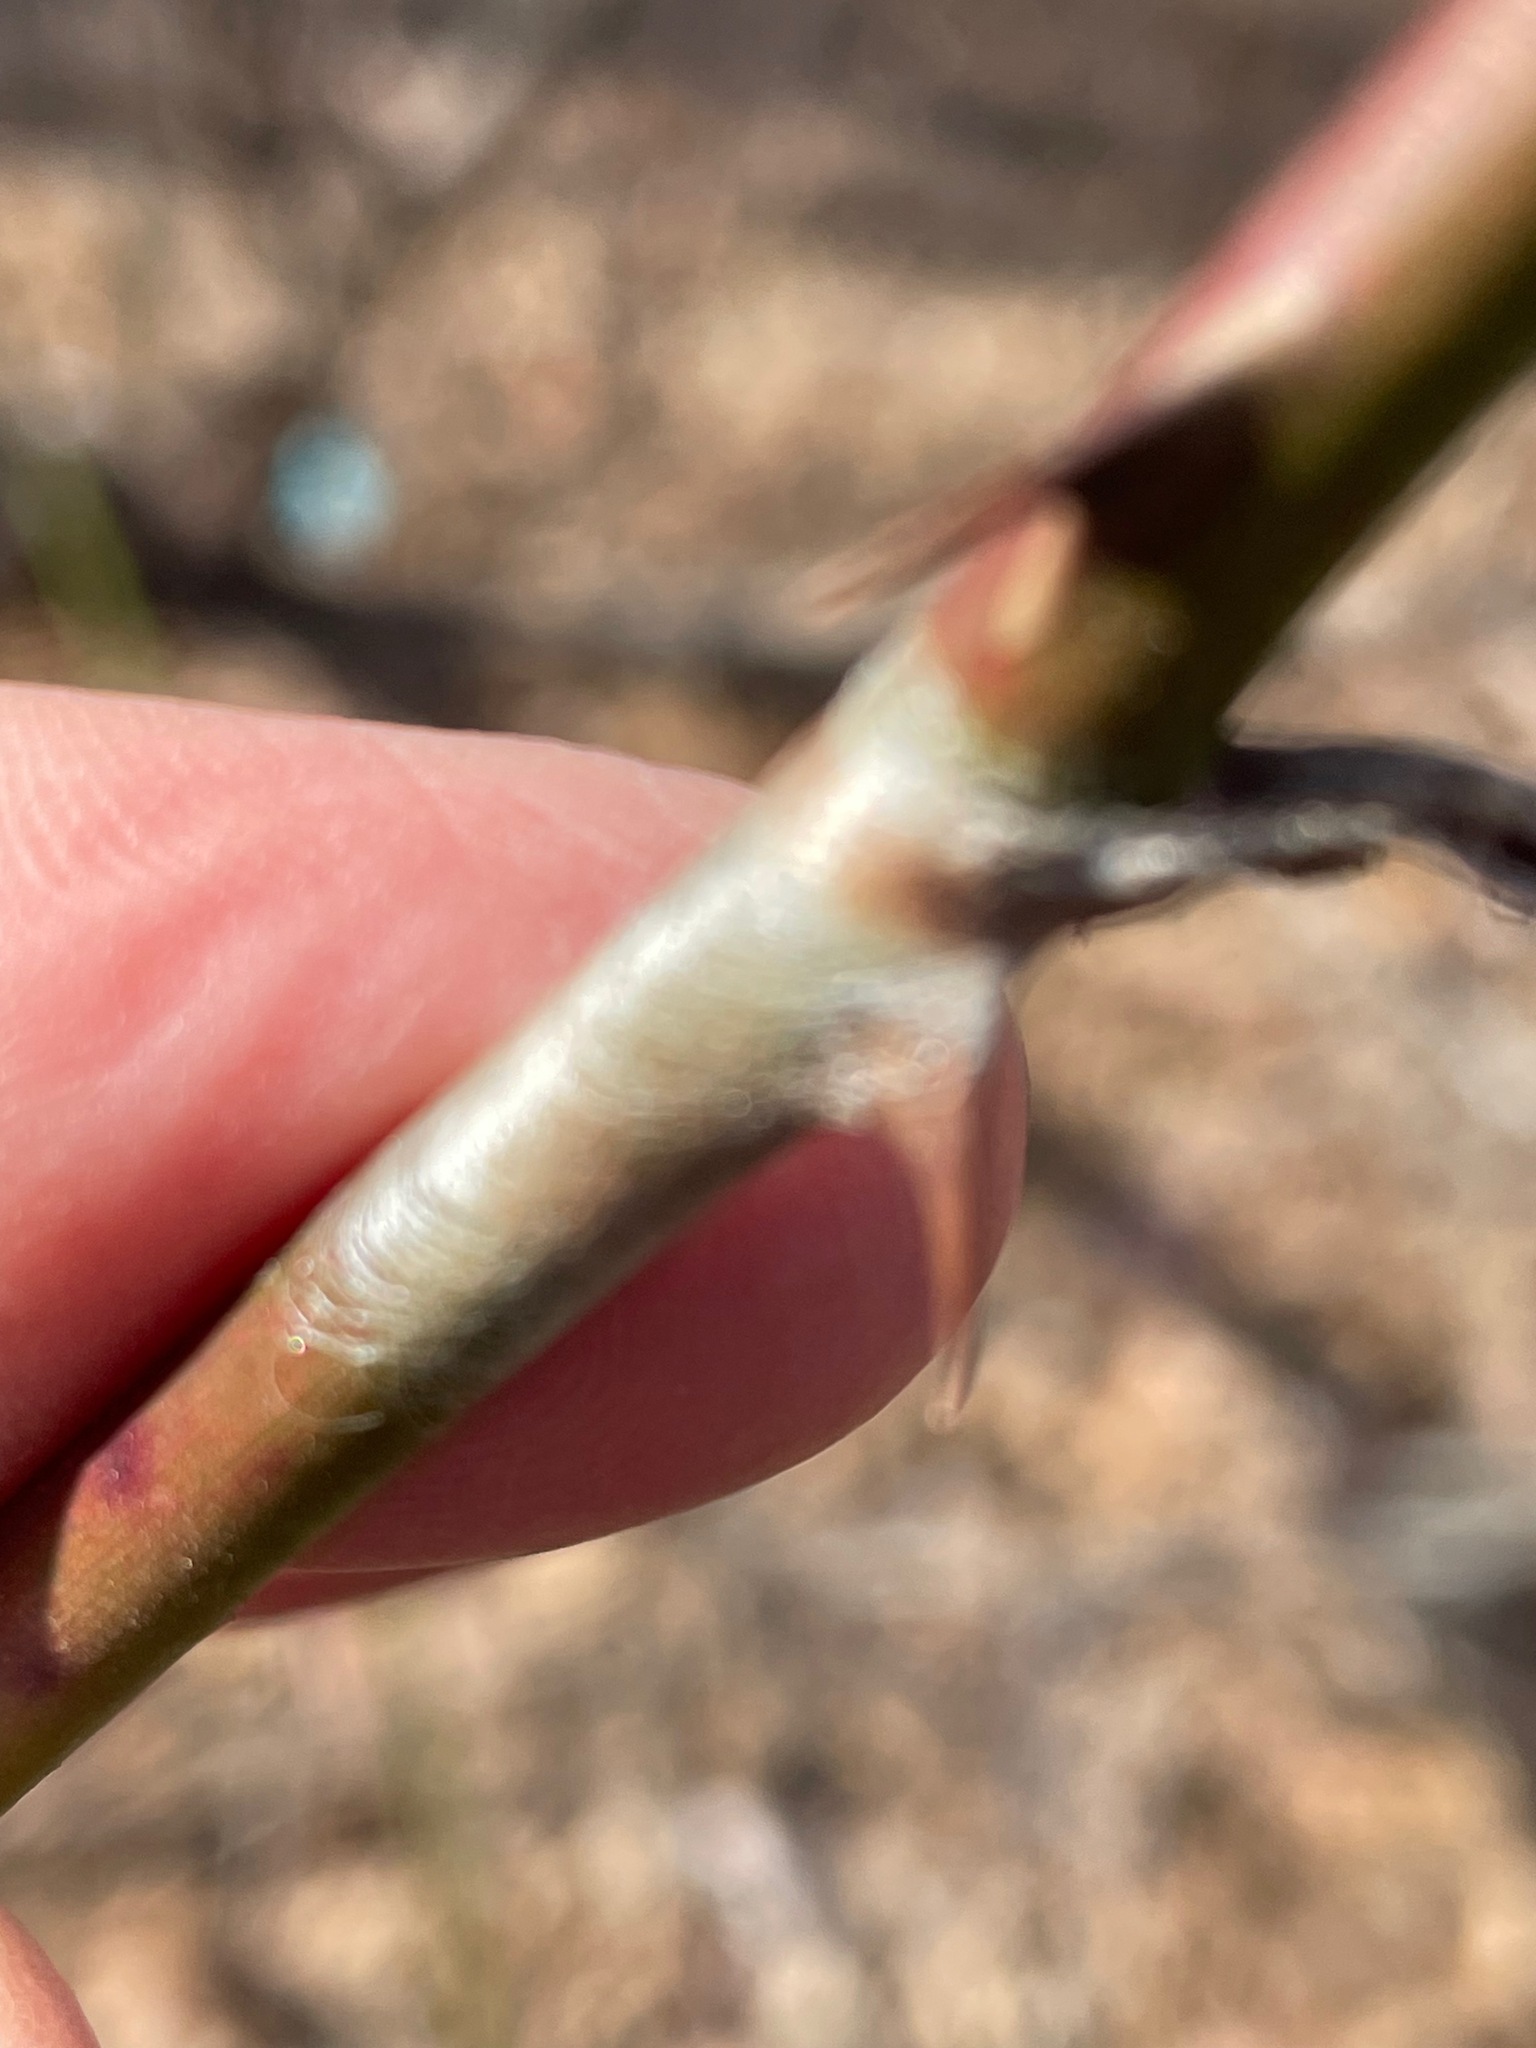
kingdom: Animalia
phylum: Arthropoda
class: Insecta
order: Lepidoptera
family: Saturniidae
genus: Callosamia
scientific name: Callosamia promethea
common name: Promethea silkmoth
